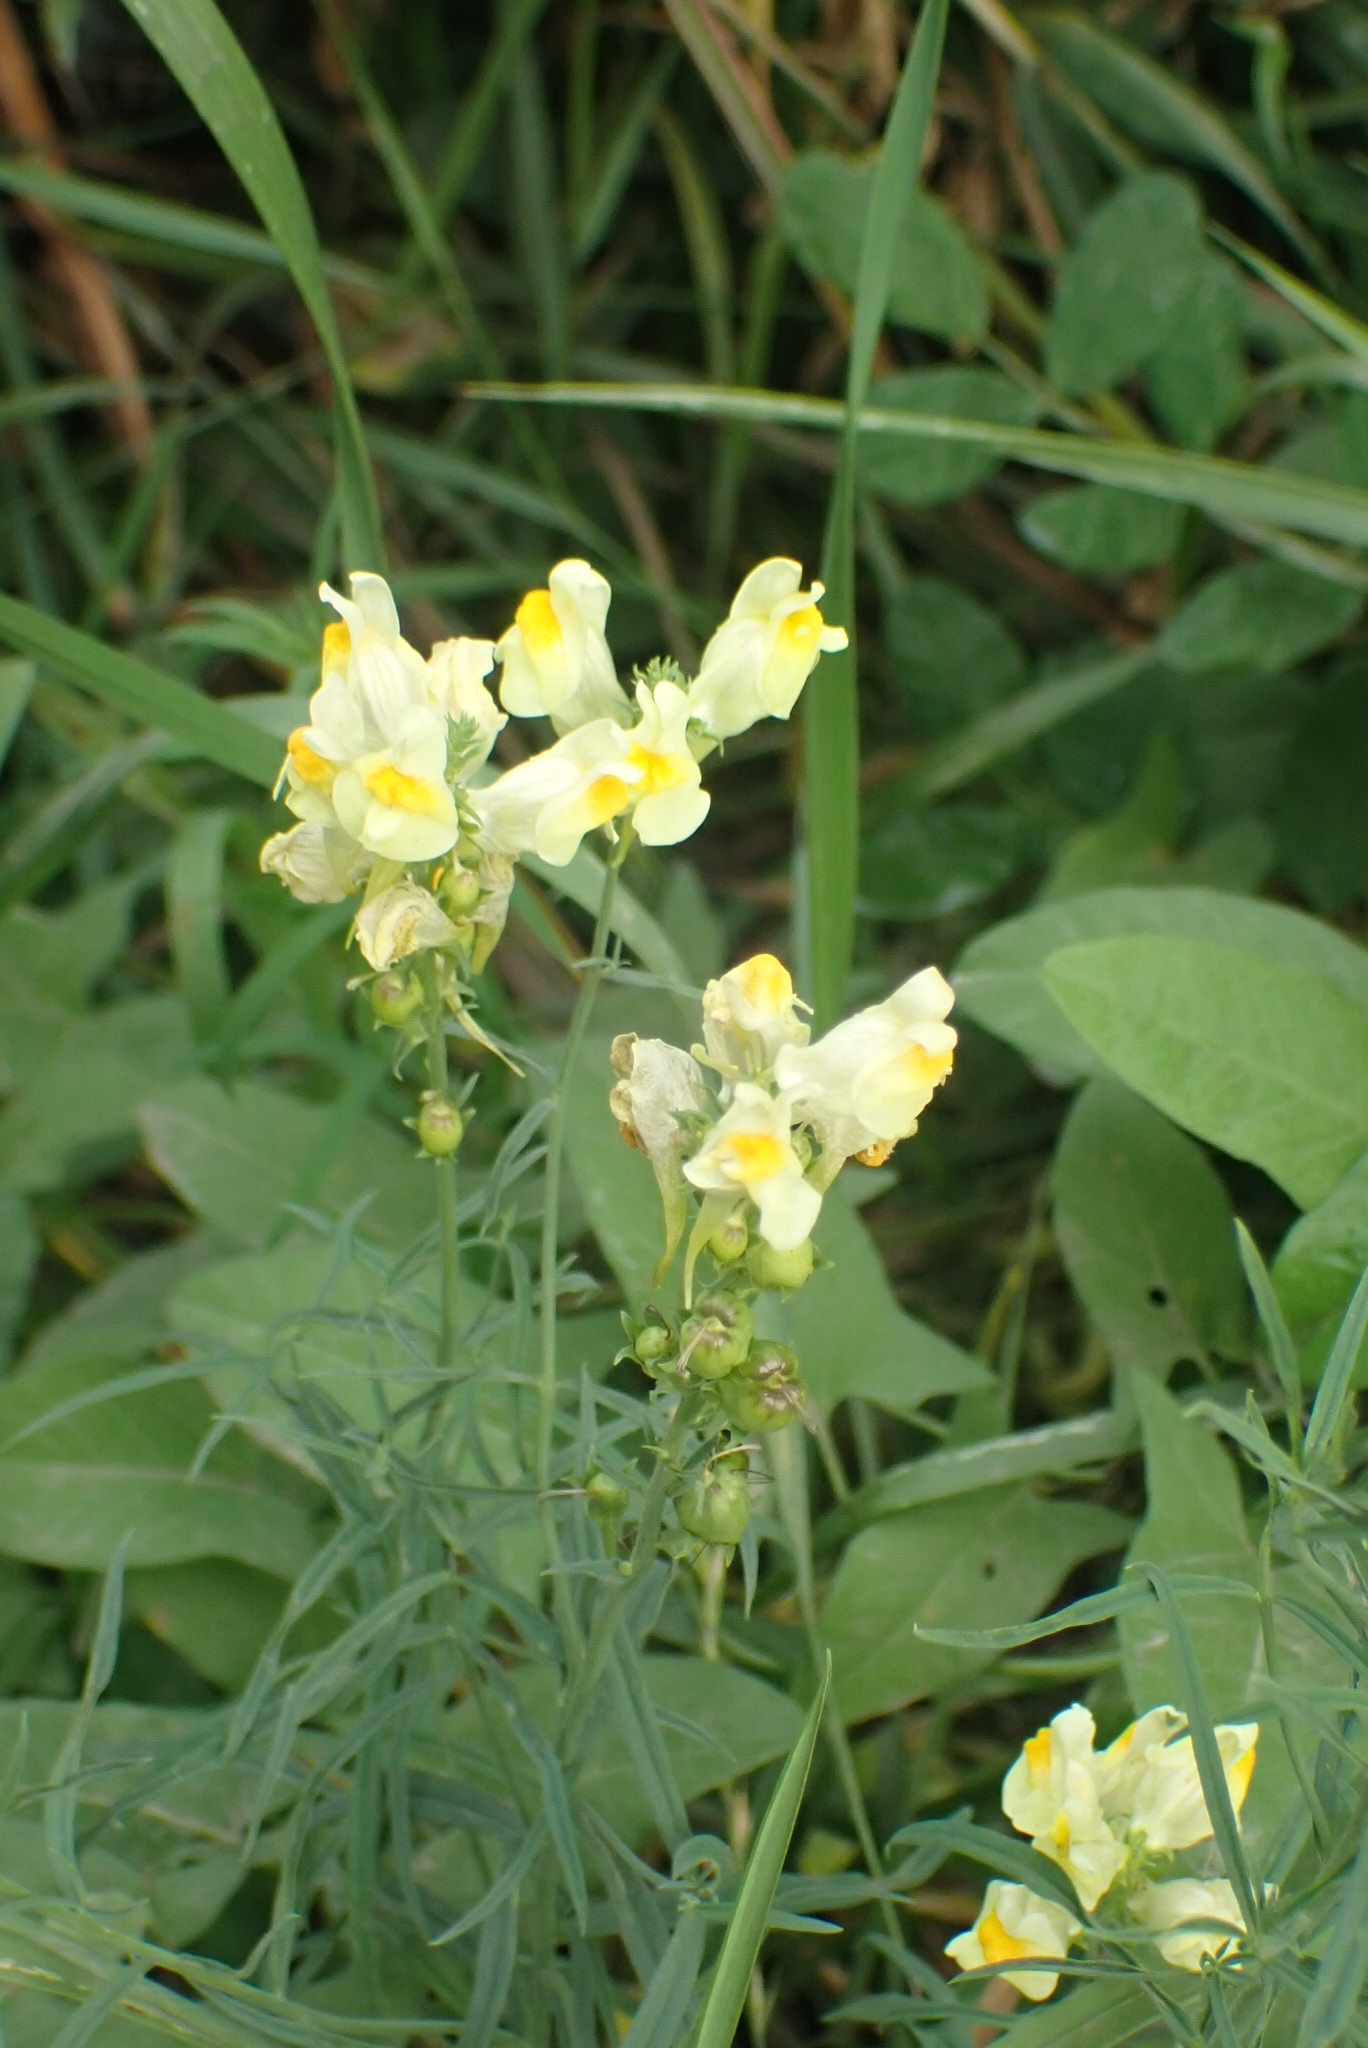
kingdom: Plantae
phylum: Tracheophyta
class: Magnoliopsida
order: Lamiales
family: Plantaginaceae
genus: Linaria
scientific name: Linaria vulgaris
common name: Butter and eggs
